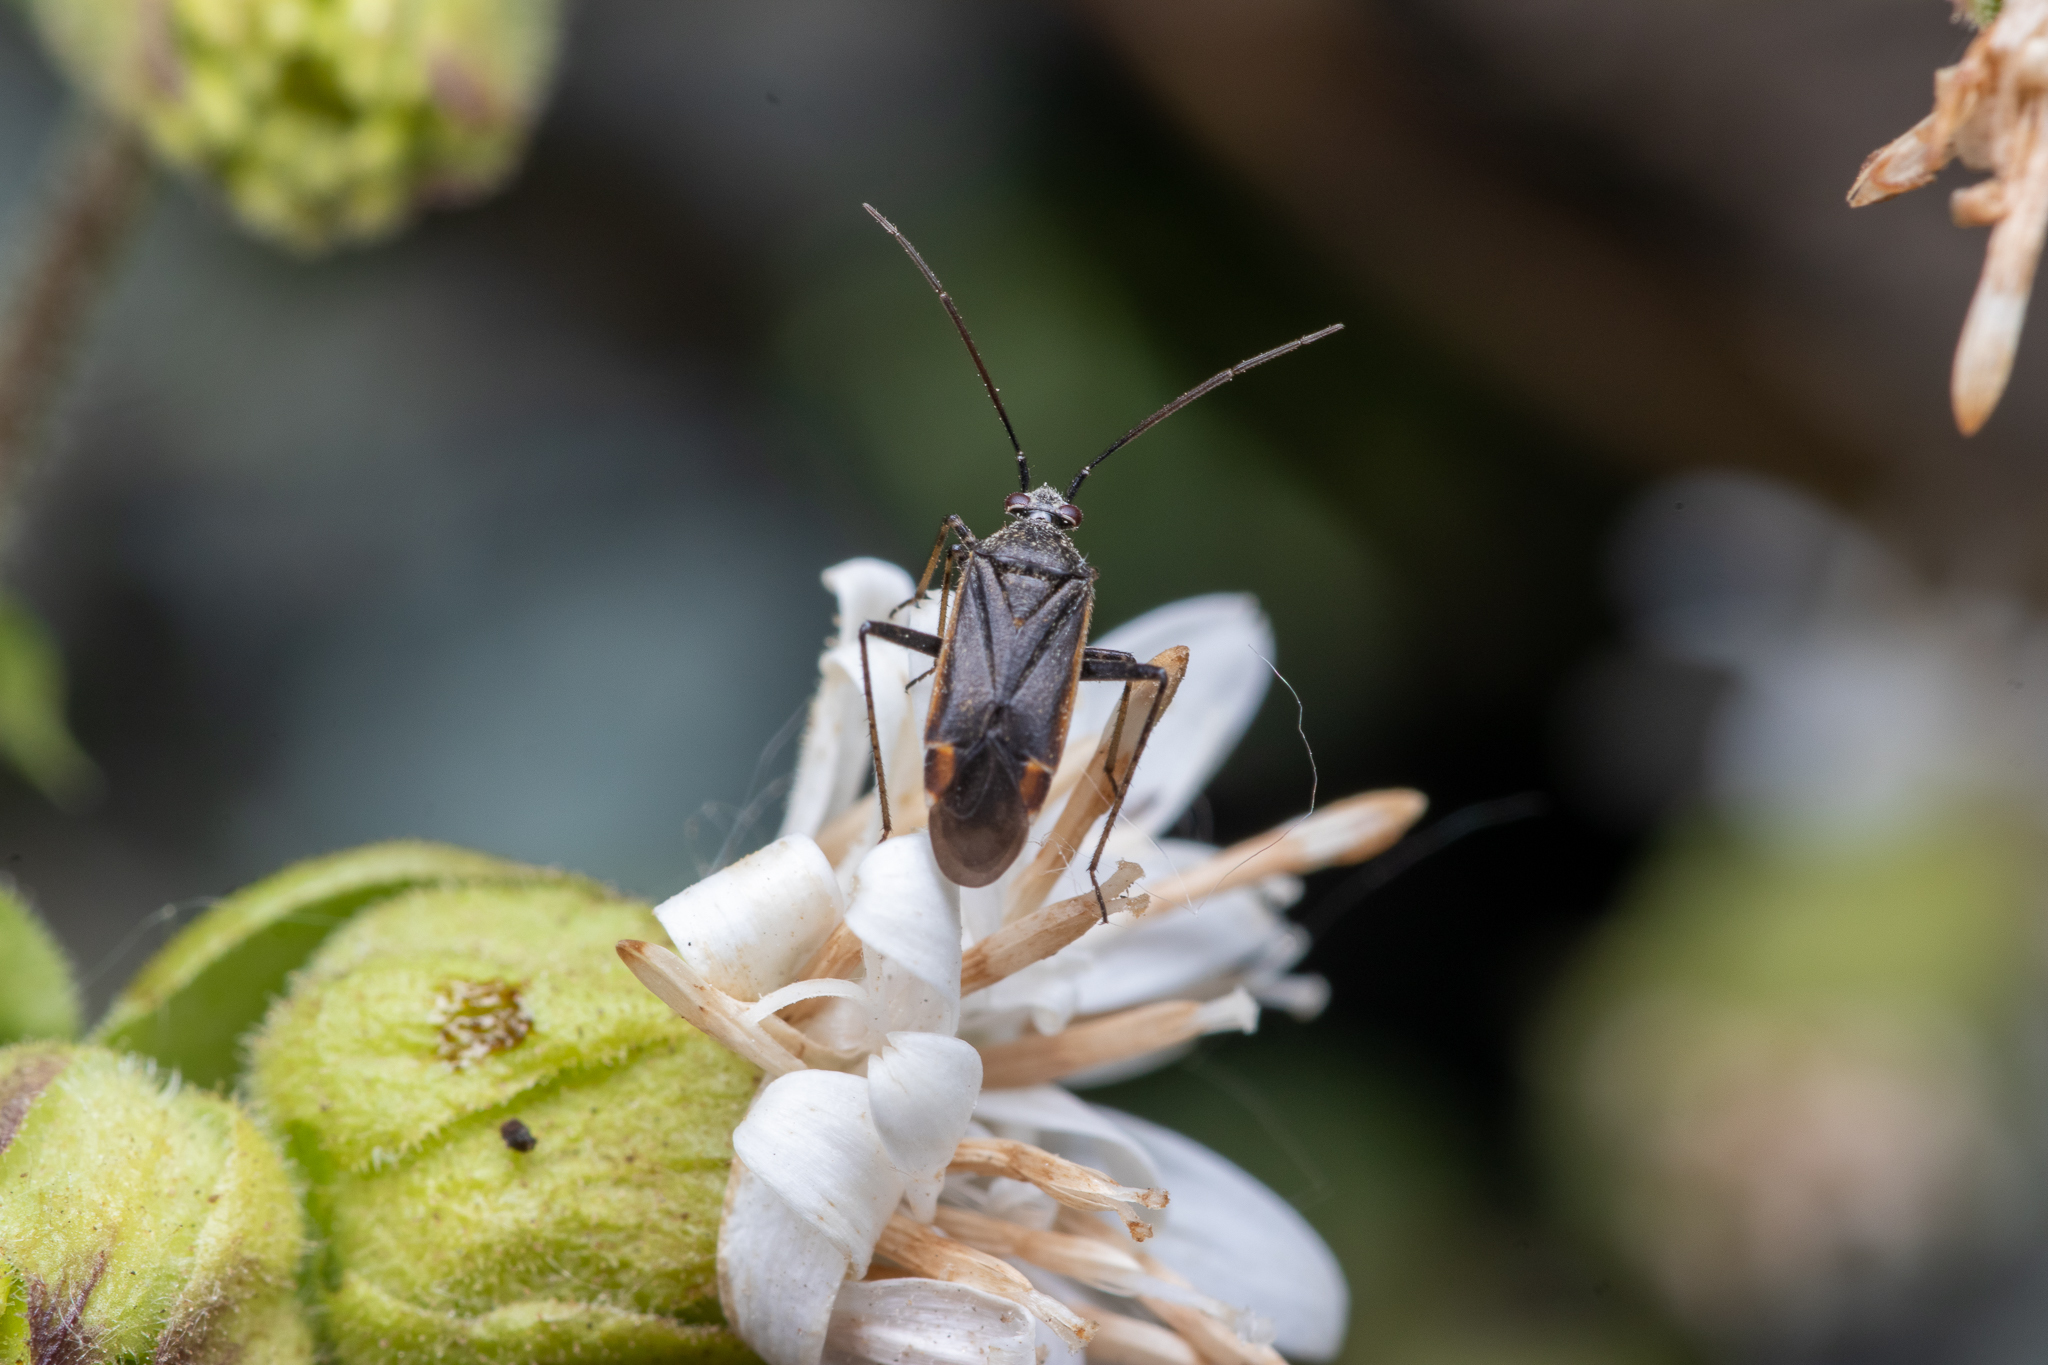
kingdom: Animalia
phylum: Arthropoda
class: Insecta
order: Hemiptera
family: Miridae
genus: Polymerus
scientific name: Polymerus
